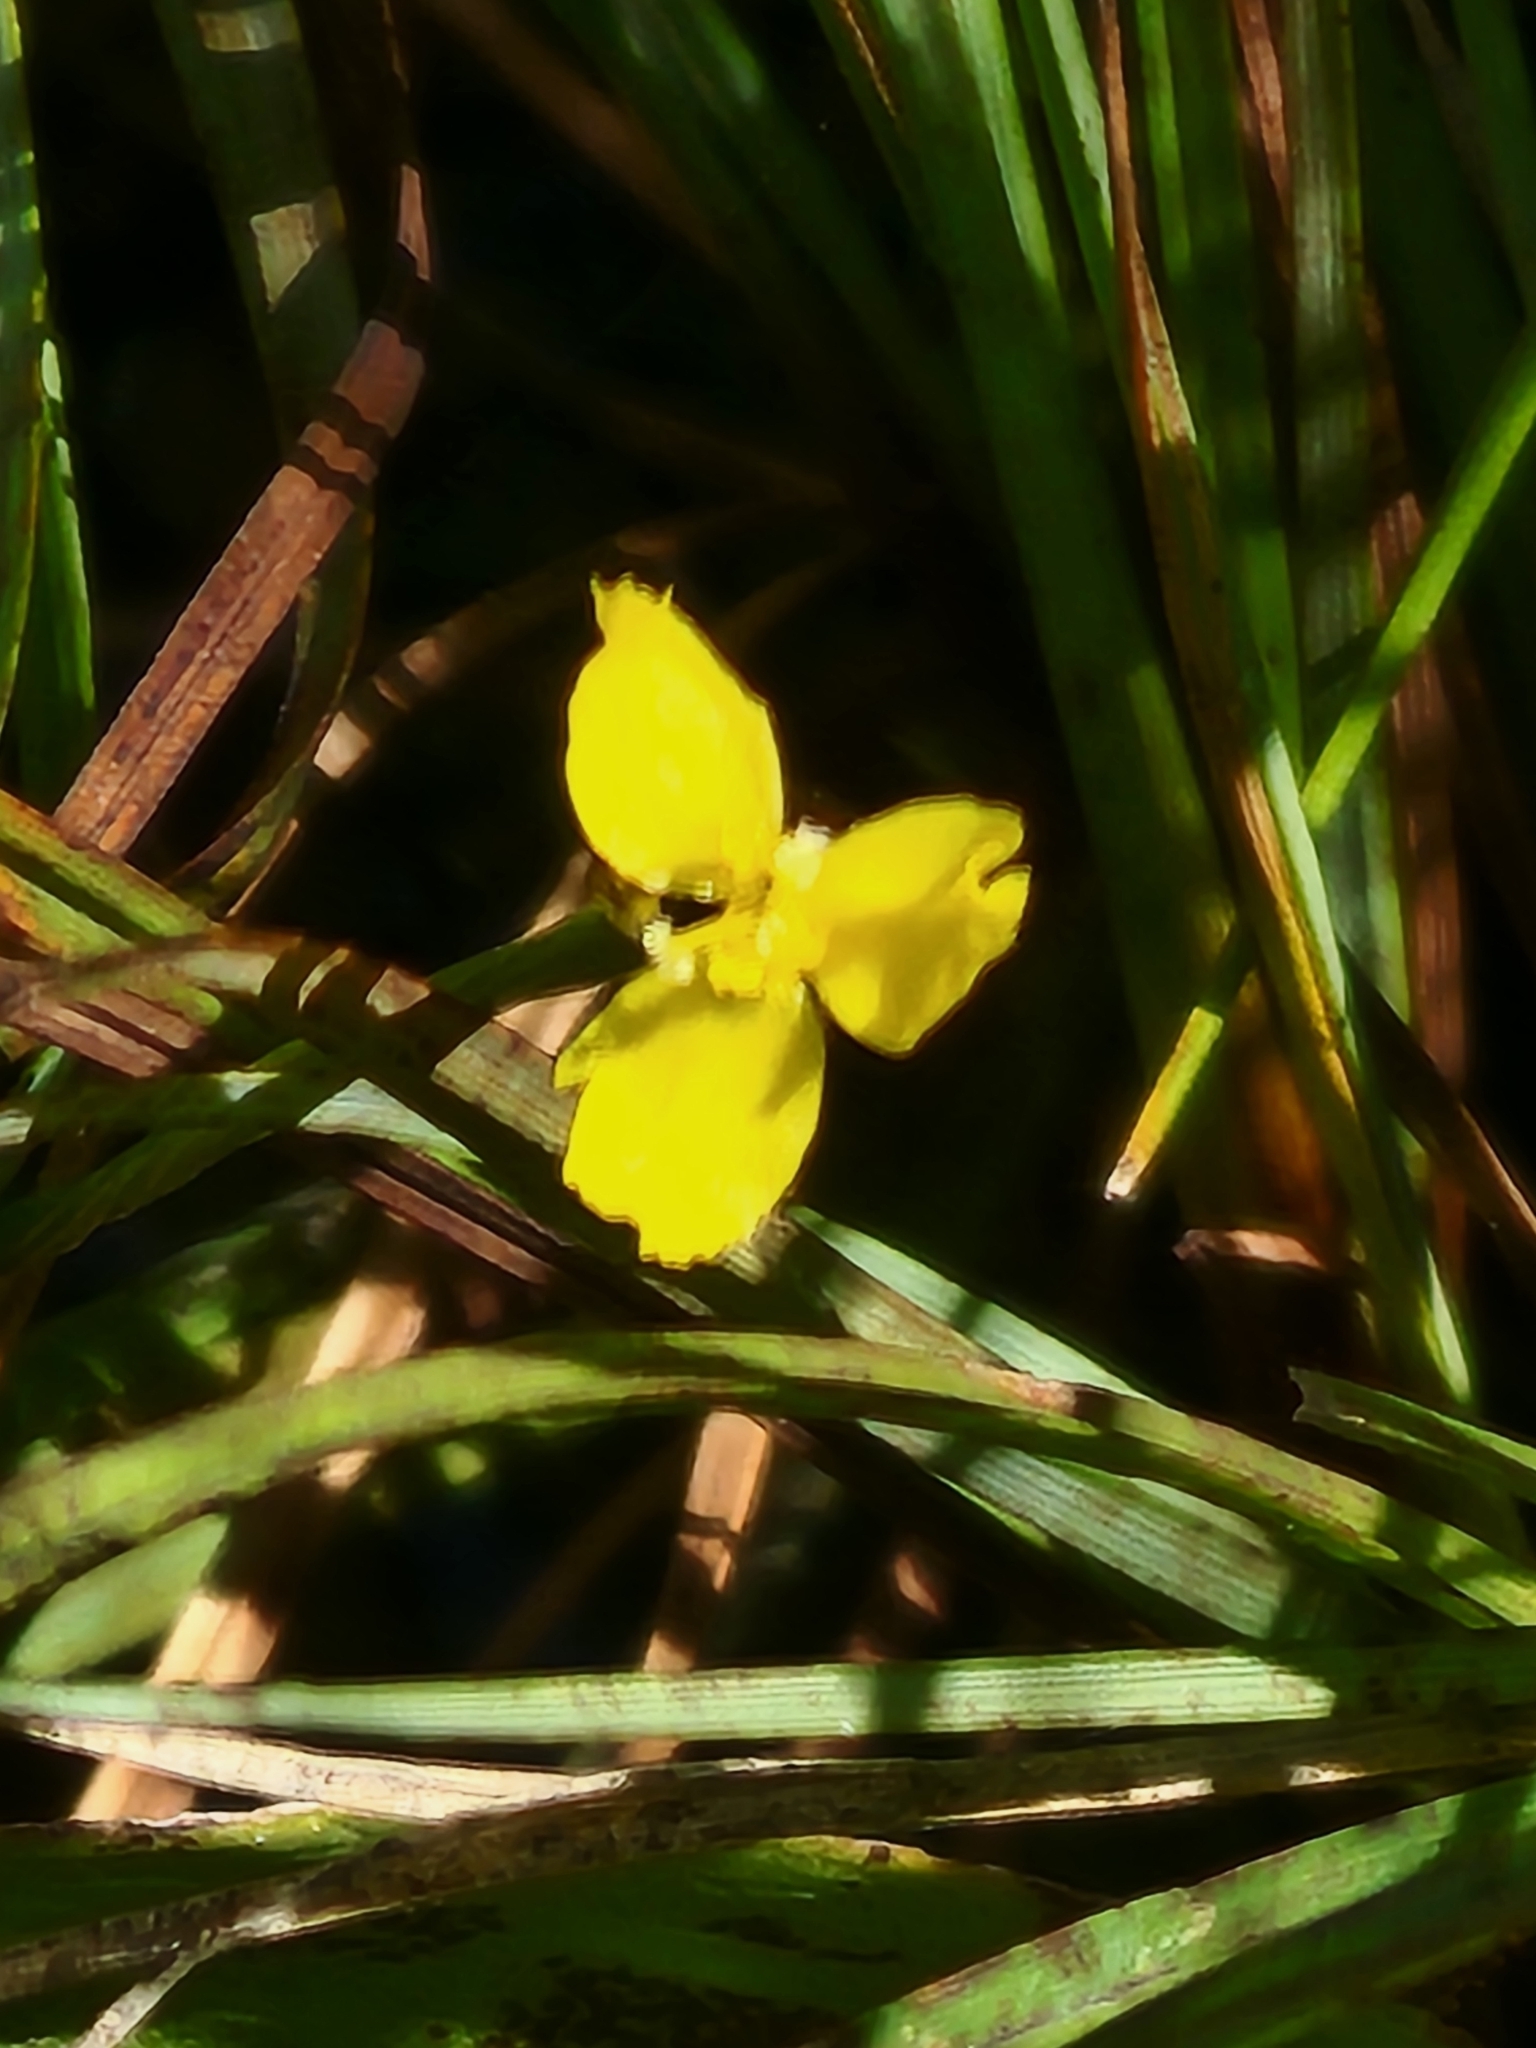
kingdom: Plantae
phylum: Tracheophyta
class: Liliopsida
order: Poales
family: Xyridaceae
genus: Xyris
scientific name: Xyris montana
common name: Northern yellow-eyed-grass
